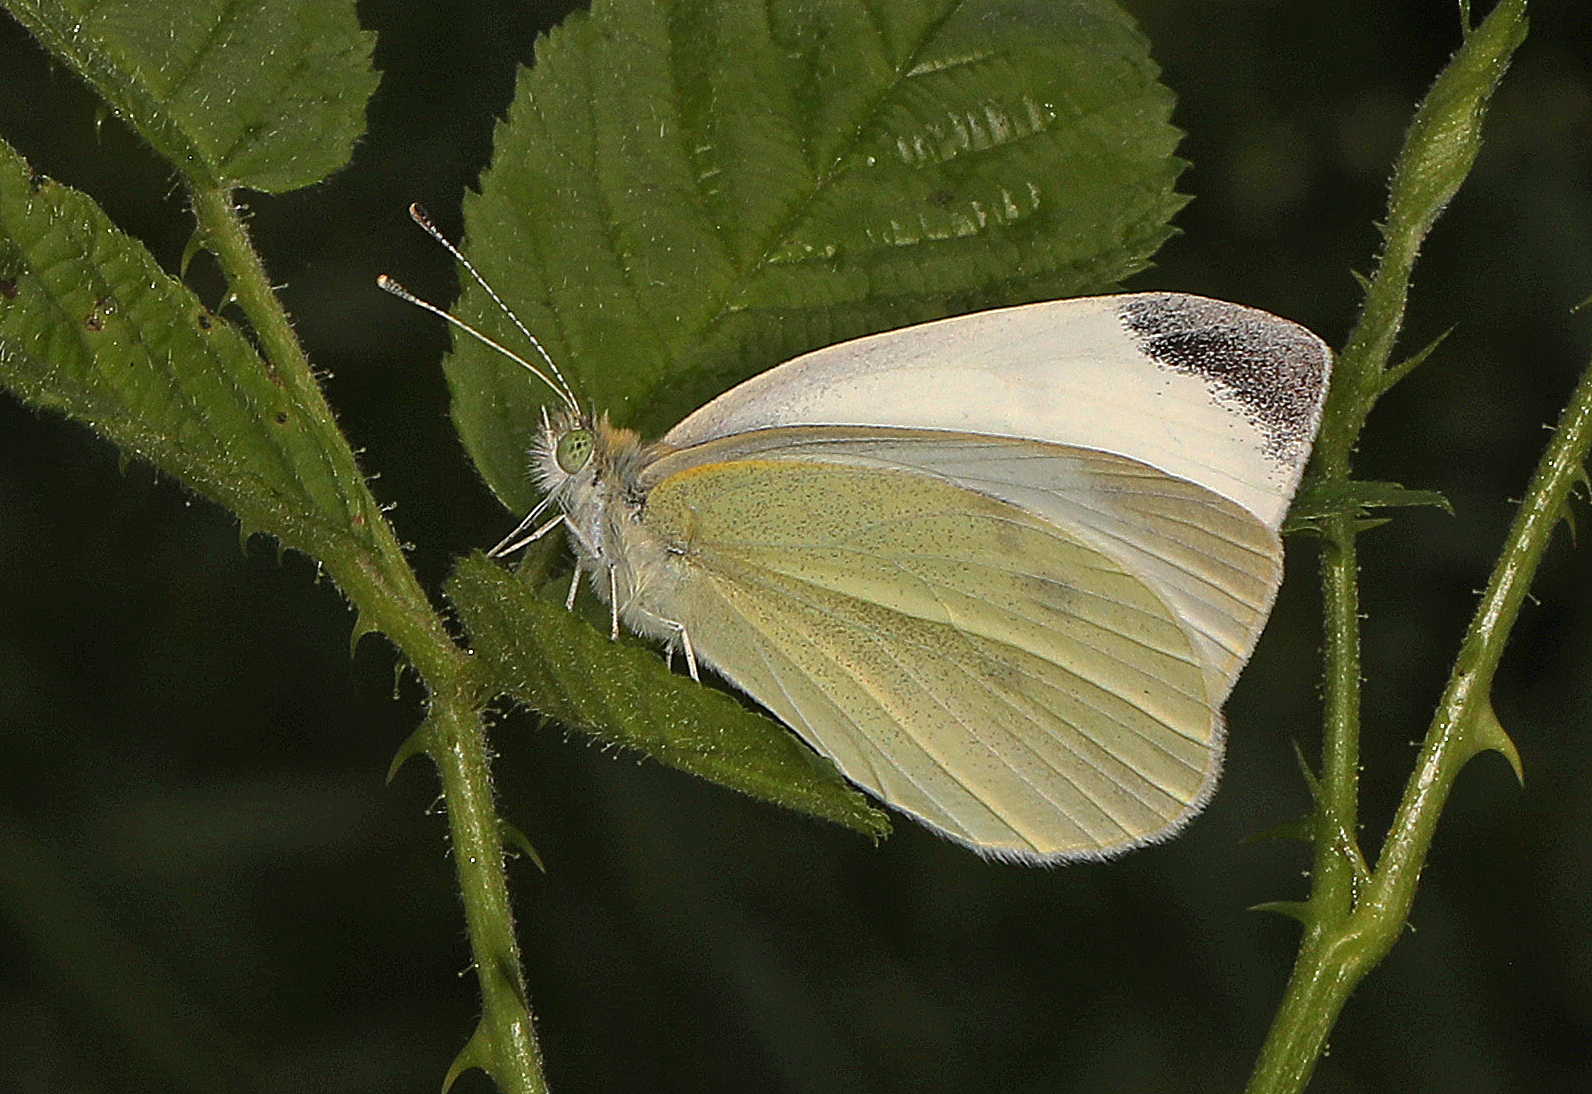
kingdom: Animalia
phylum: Arthropoda
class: Insecta
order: Lepidoptera
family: Pieridae
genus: Pieris
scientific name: Pieris rapae
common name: Small white
